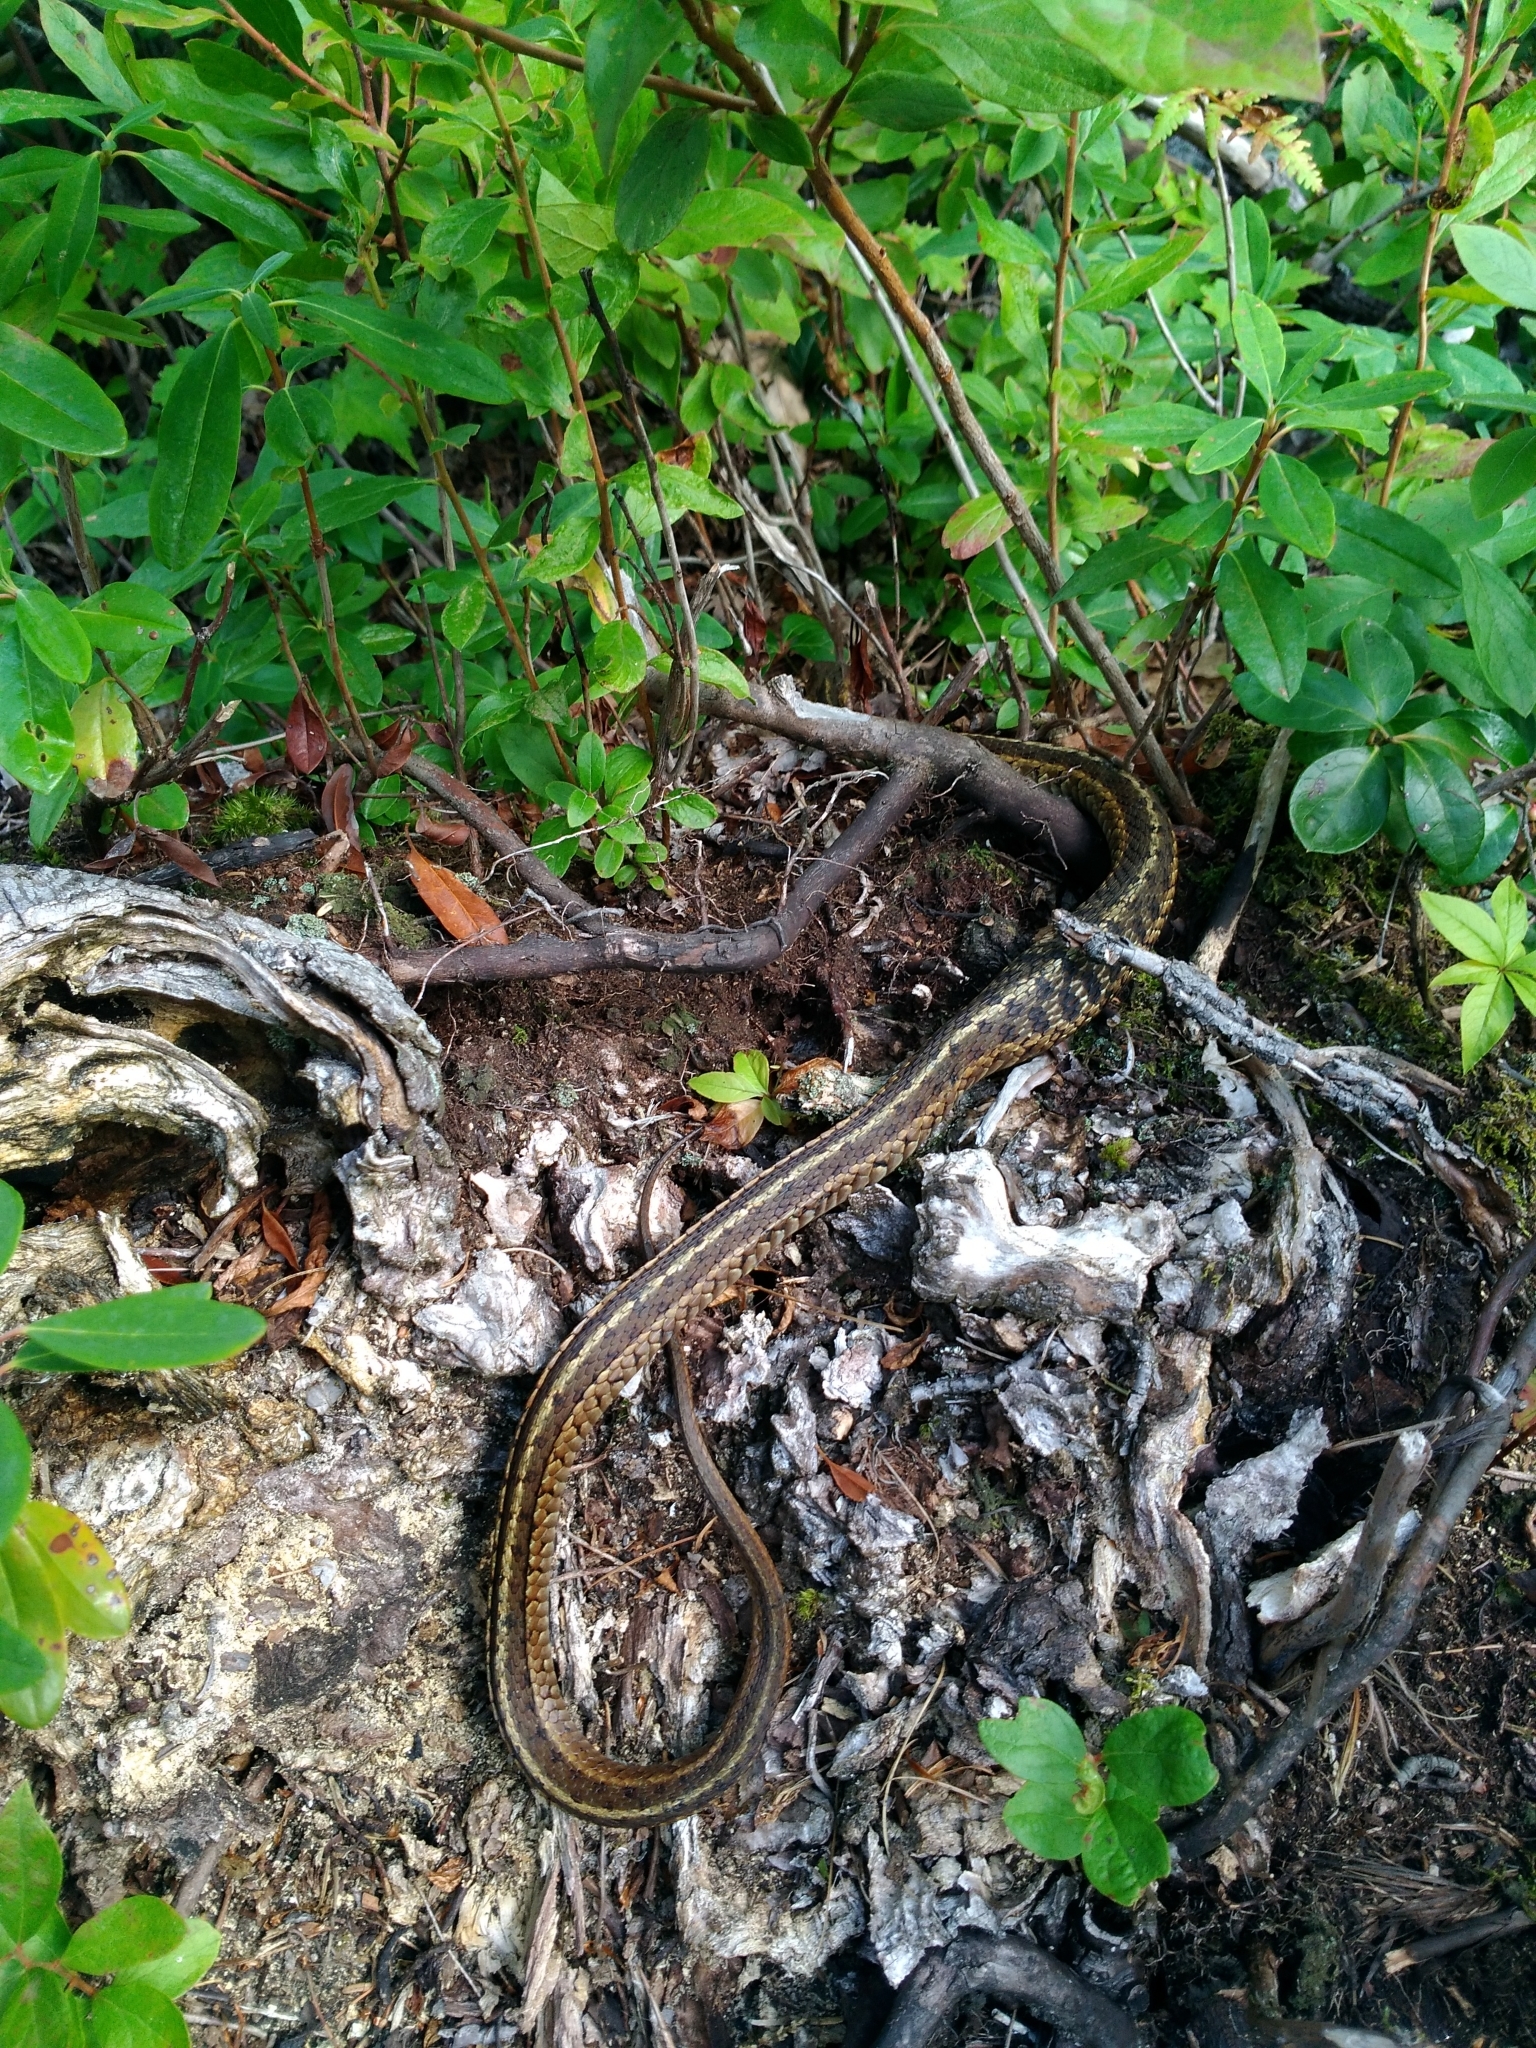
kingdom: Animalia
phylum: Chordata
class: Squamata
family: Colubridae
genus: Thamnophis
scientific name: Thamnophis sirtalis
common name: Common garter snake
